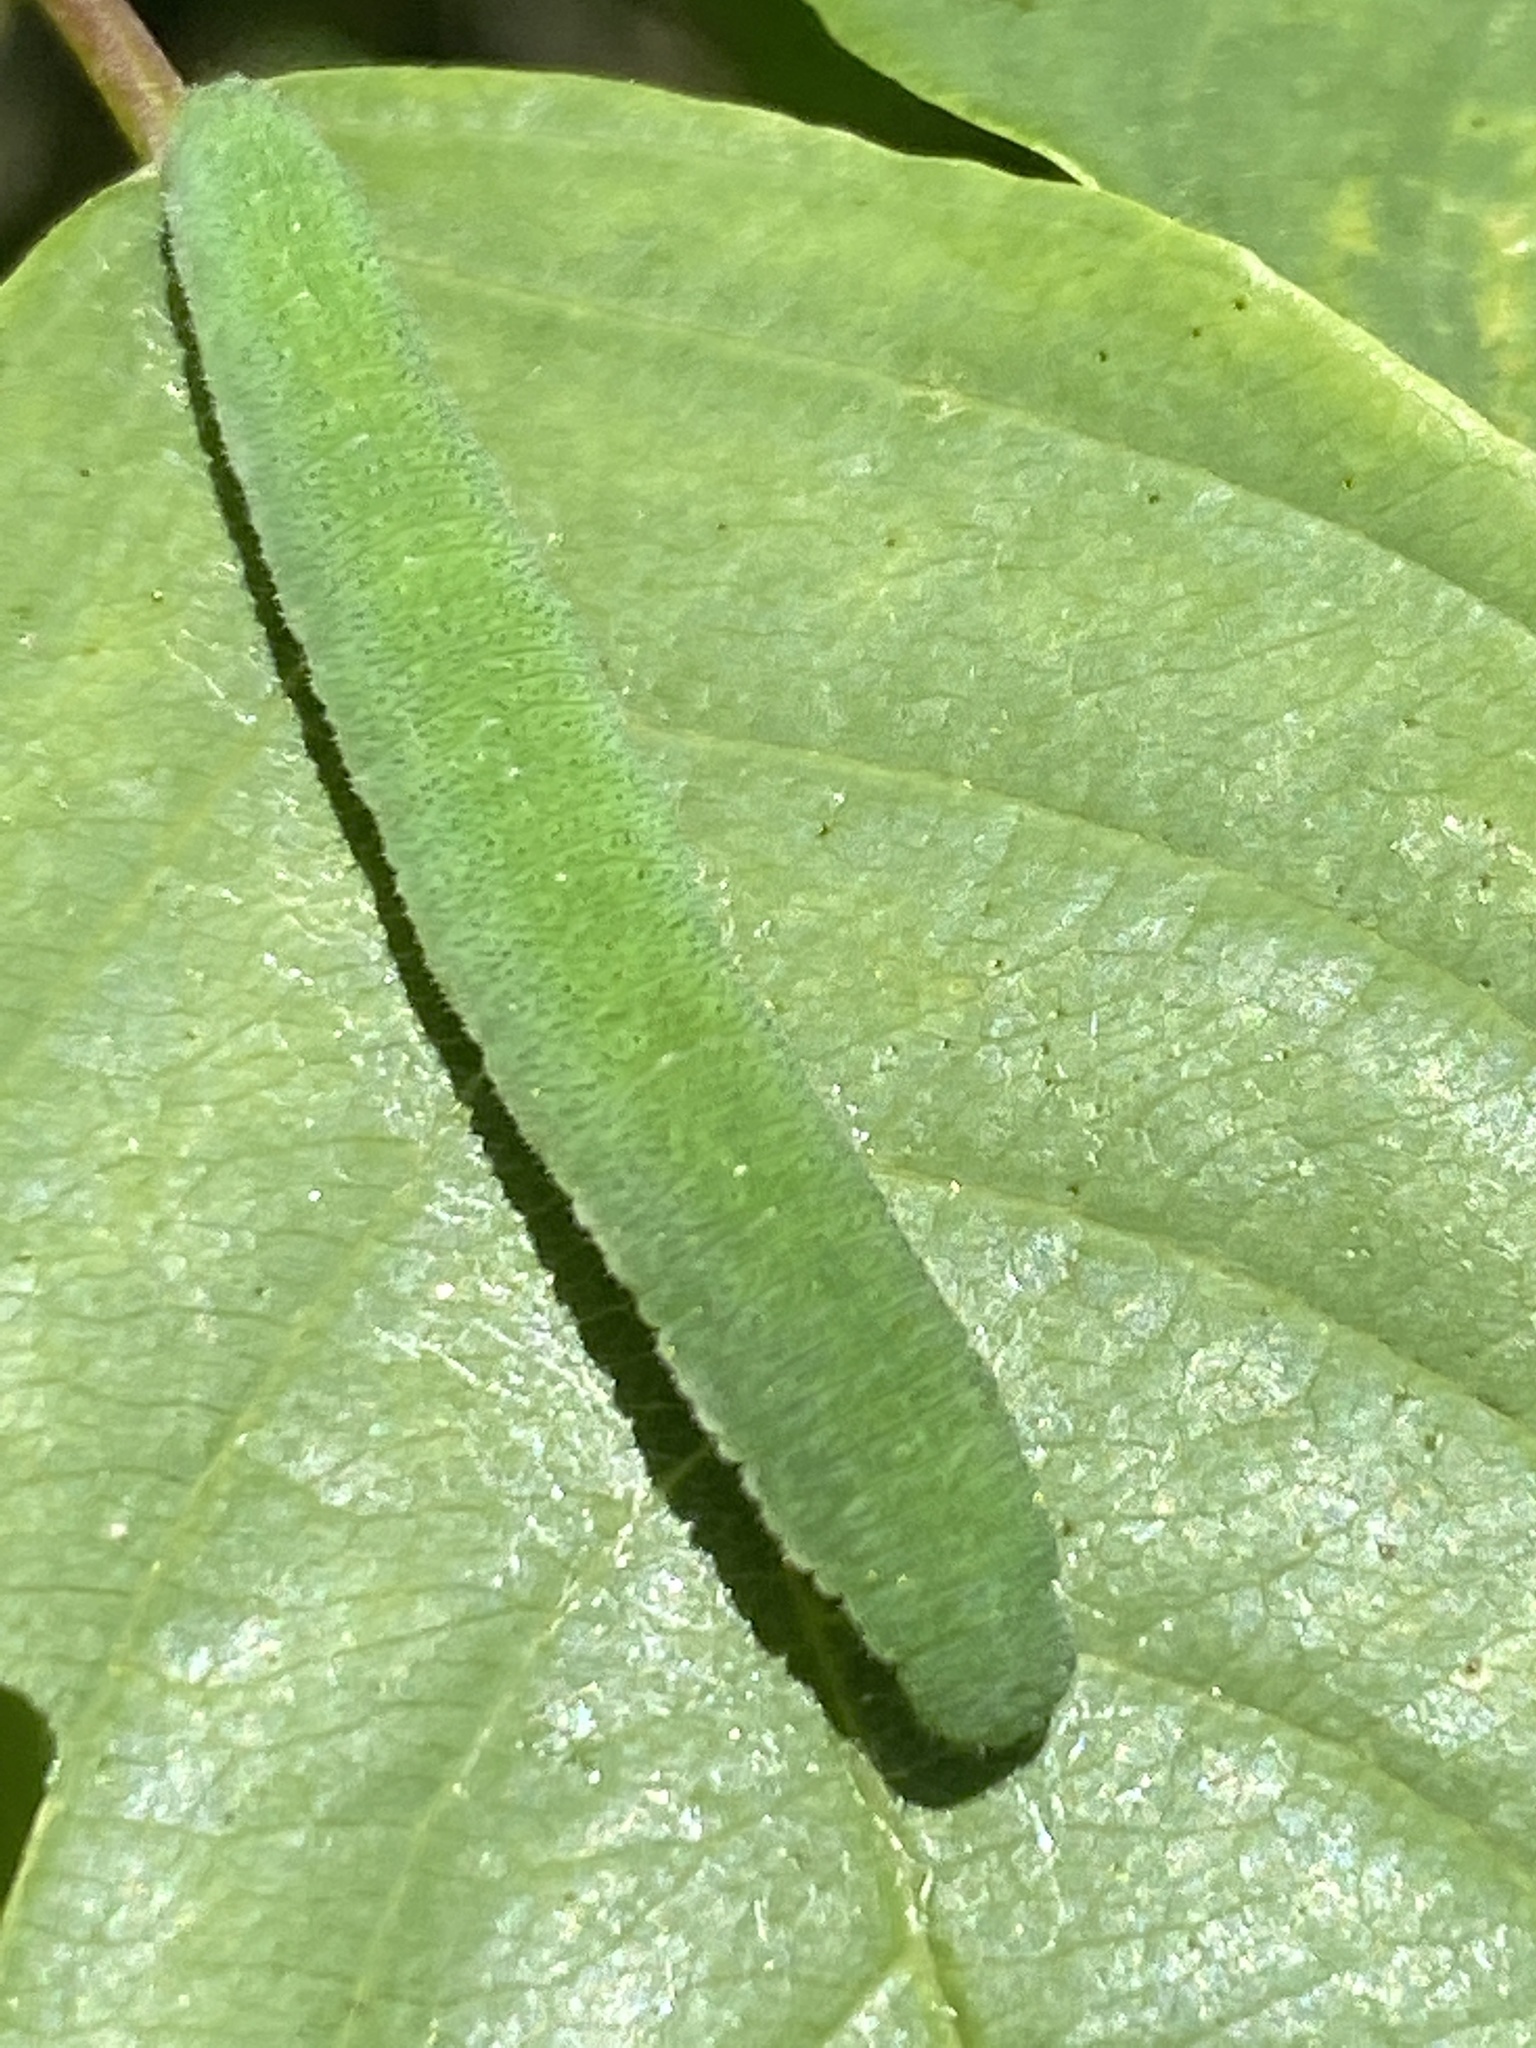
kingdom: Animalia
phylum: Arthropoda
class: Insecta
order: Lepidoptera
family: Pieridae
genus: Gonepteryx
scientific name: Gonepteryx rhamni
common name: Brimstone
